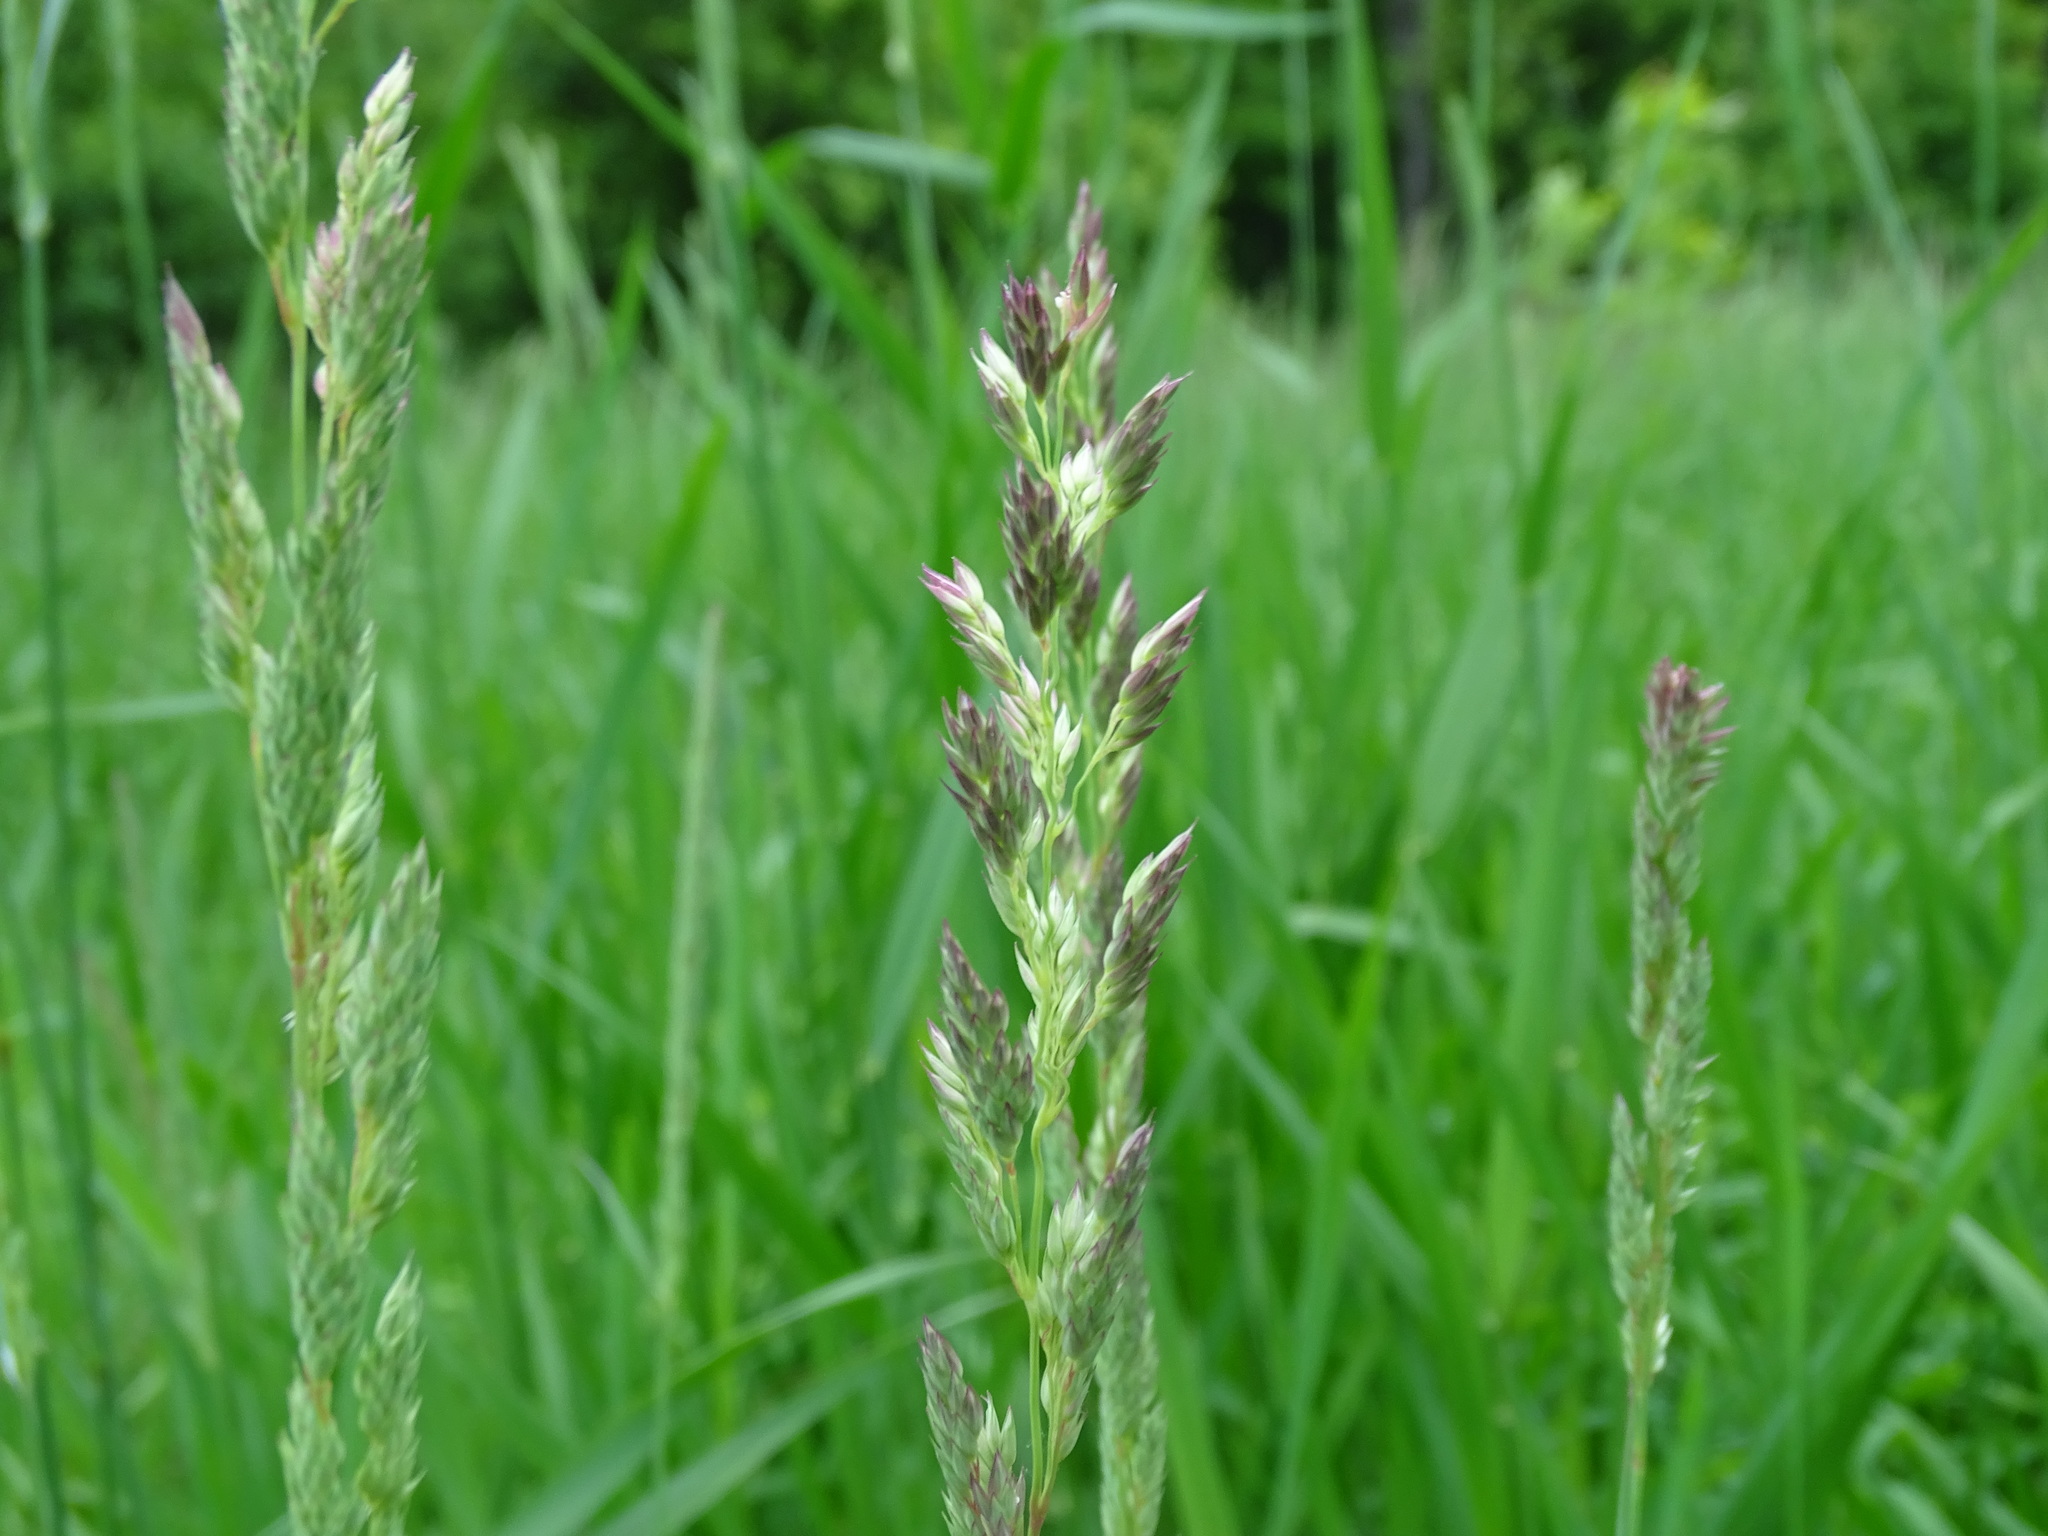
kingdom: Plantae
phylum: Tracheophyta
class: Liliopsida
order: Poales
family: Poaceae
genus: Phalaris
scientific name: Phalaris arundinacea
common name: Reed canary-grass
